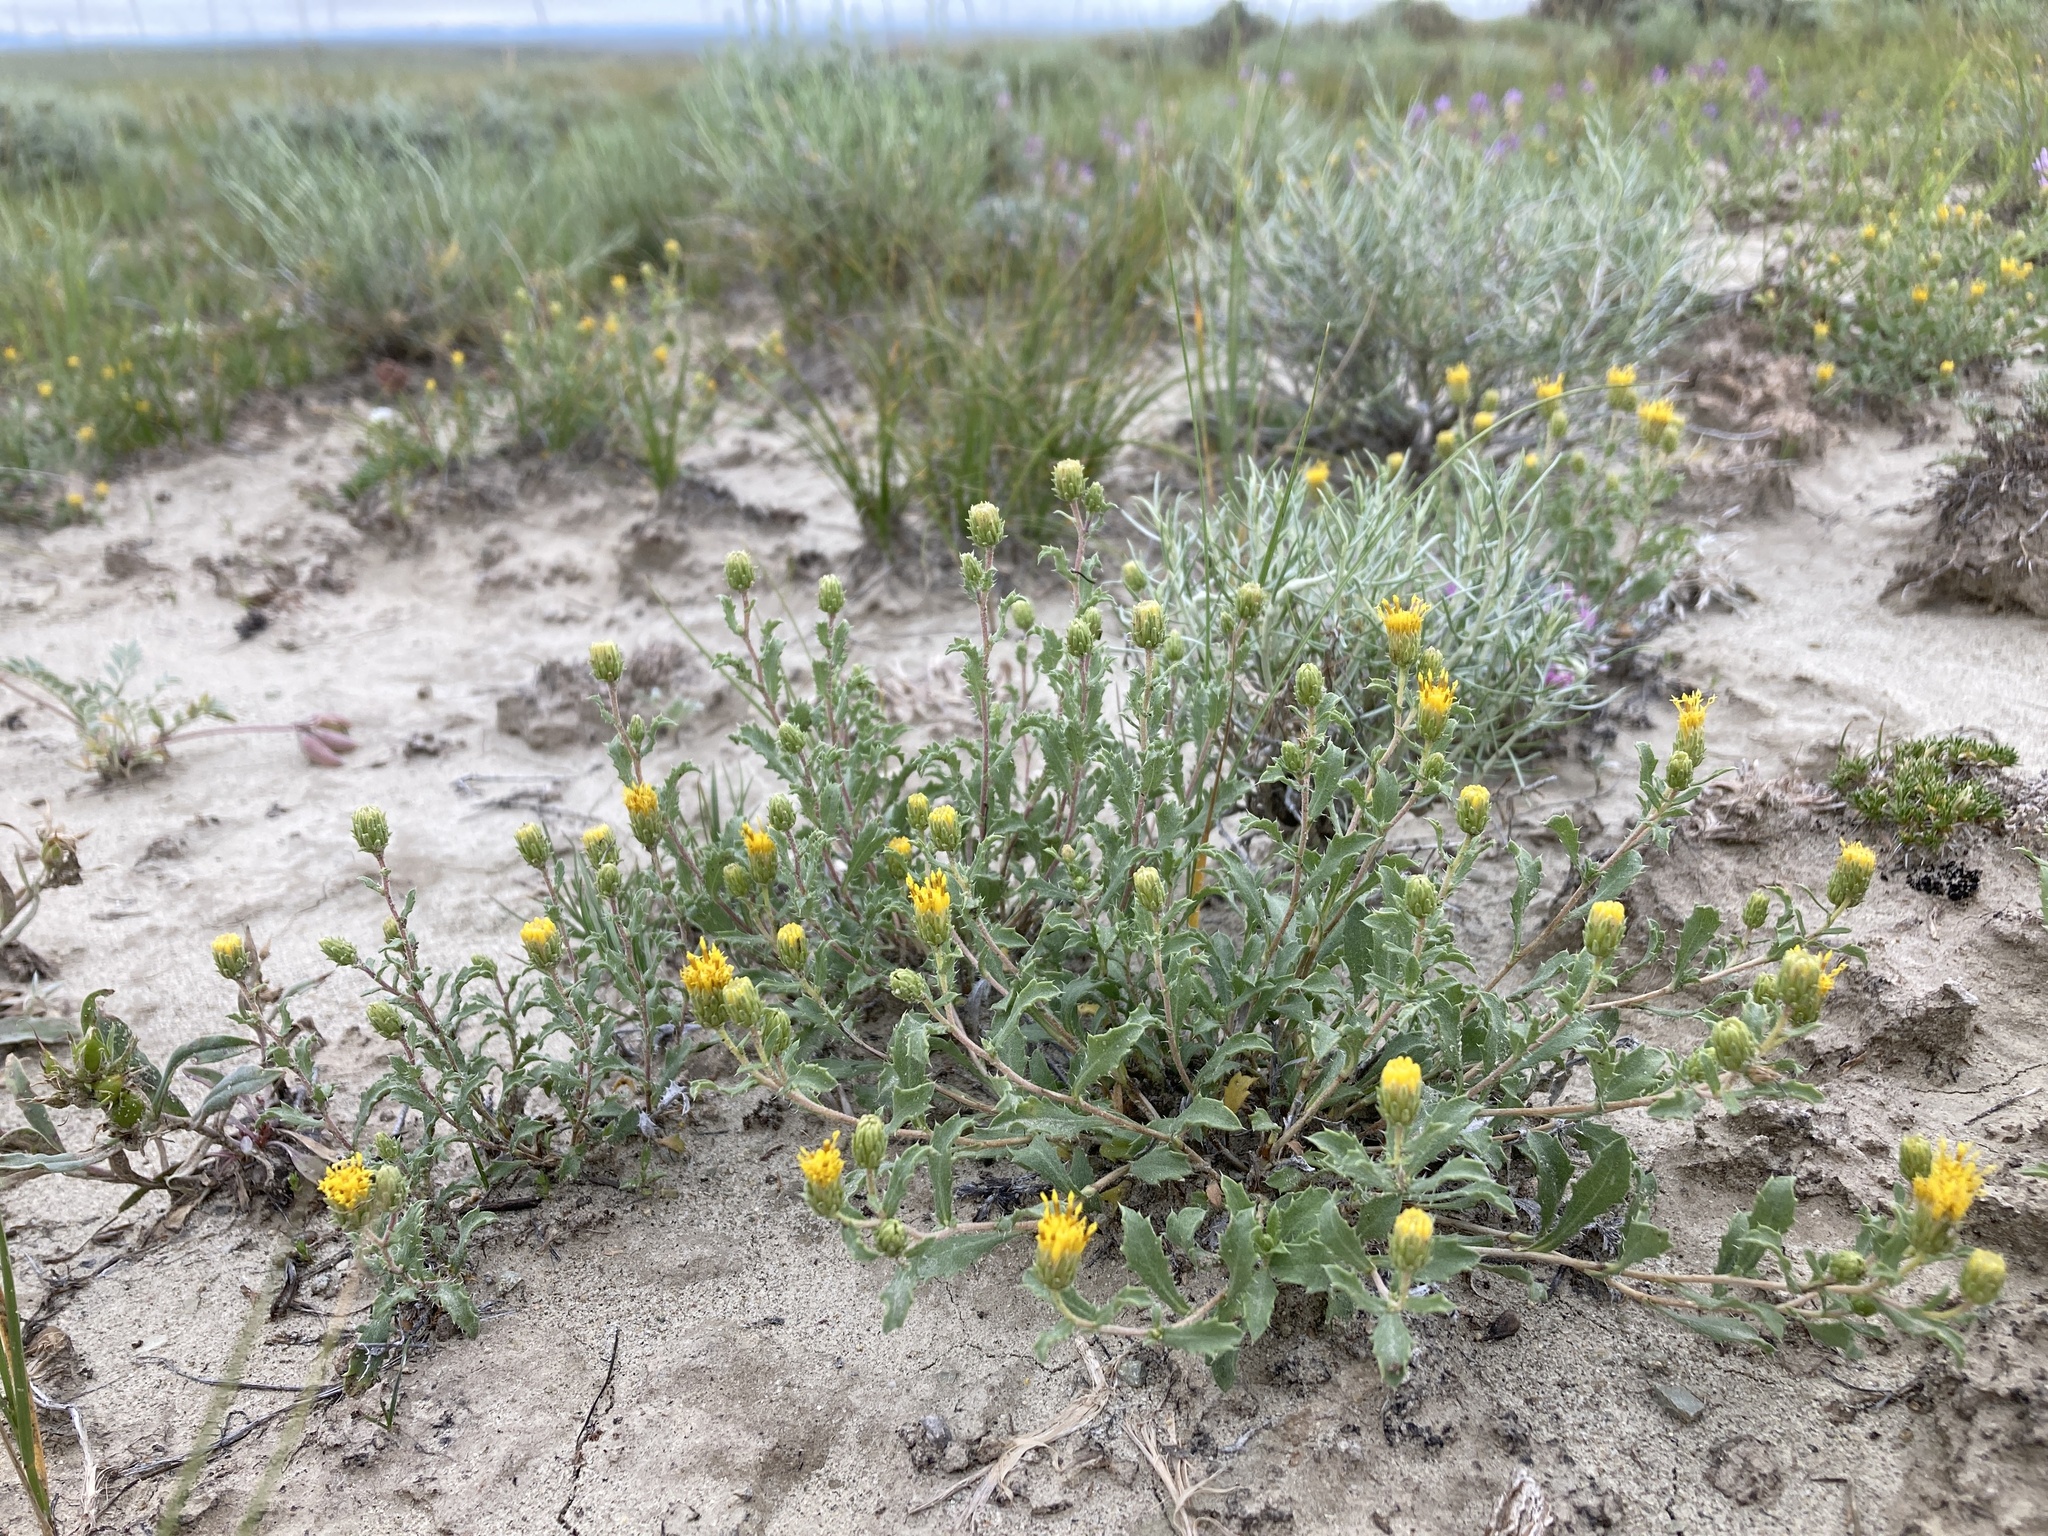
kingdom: Plantae
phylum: Tracheophyta
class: Magnoliopsida
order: Asterales
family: Asteraceae
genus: Xanthisma
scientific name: Xanthisma grindelioides
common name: Goldenweed
